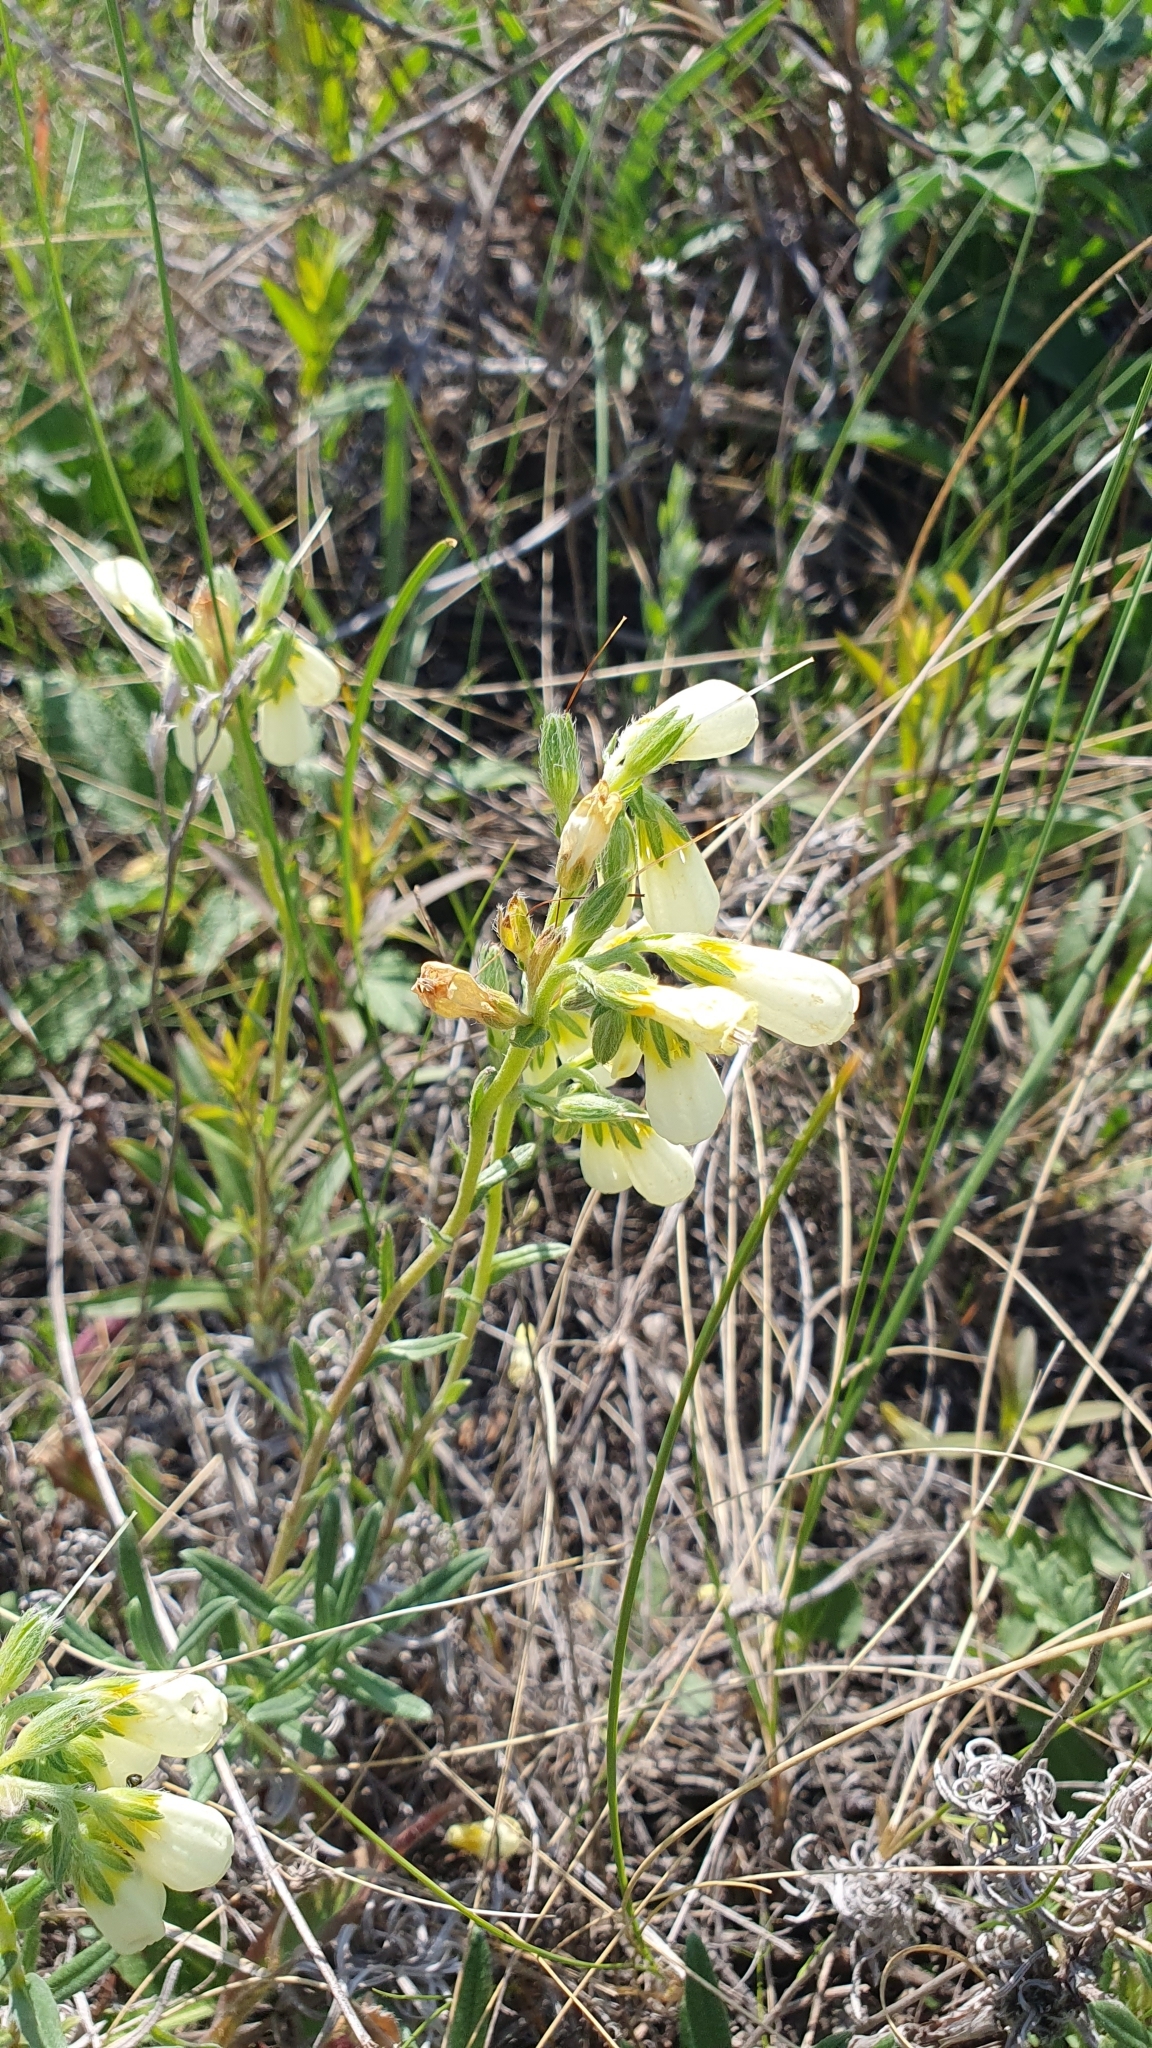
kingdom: Plantae
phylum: Tracheophyta
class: Magnoliopsida
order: Boraginales
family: Boraginaceae
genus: Onosma
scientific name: Onosma simplicissima
